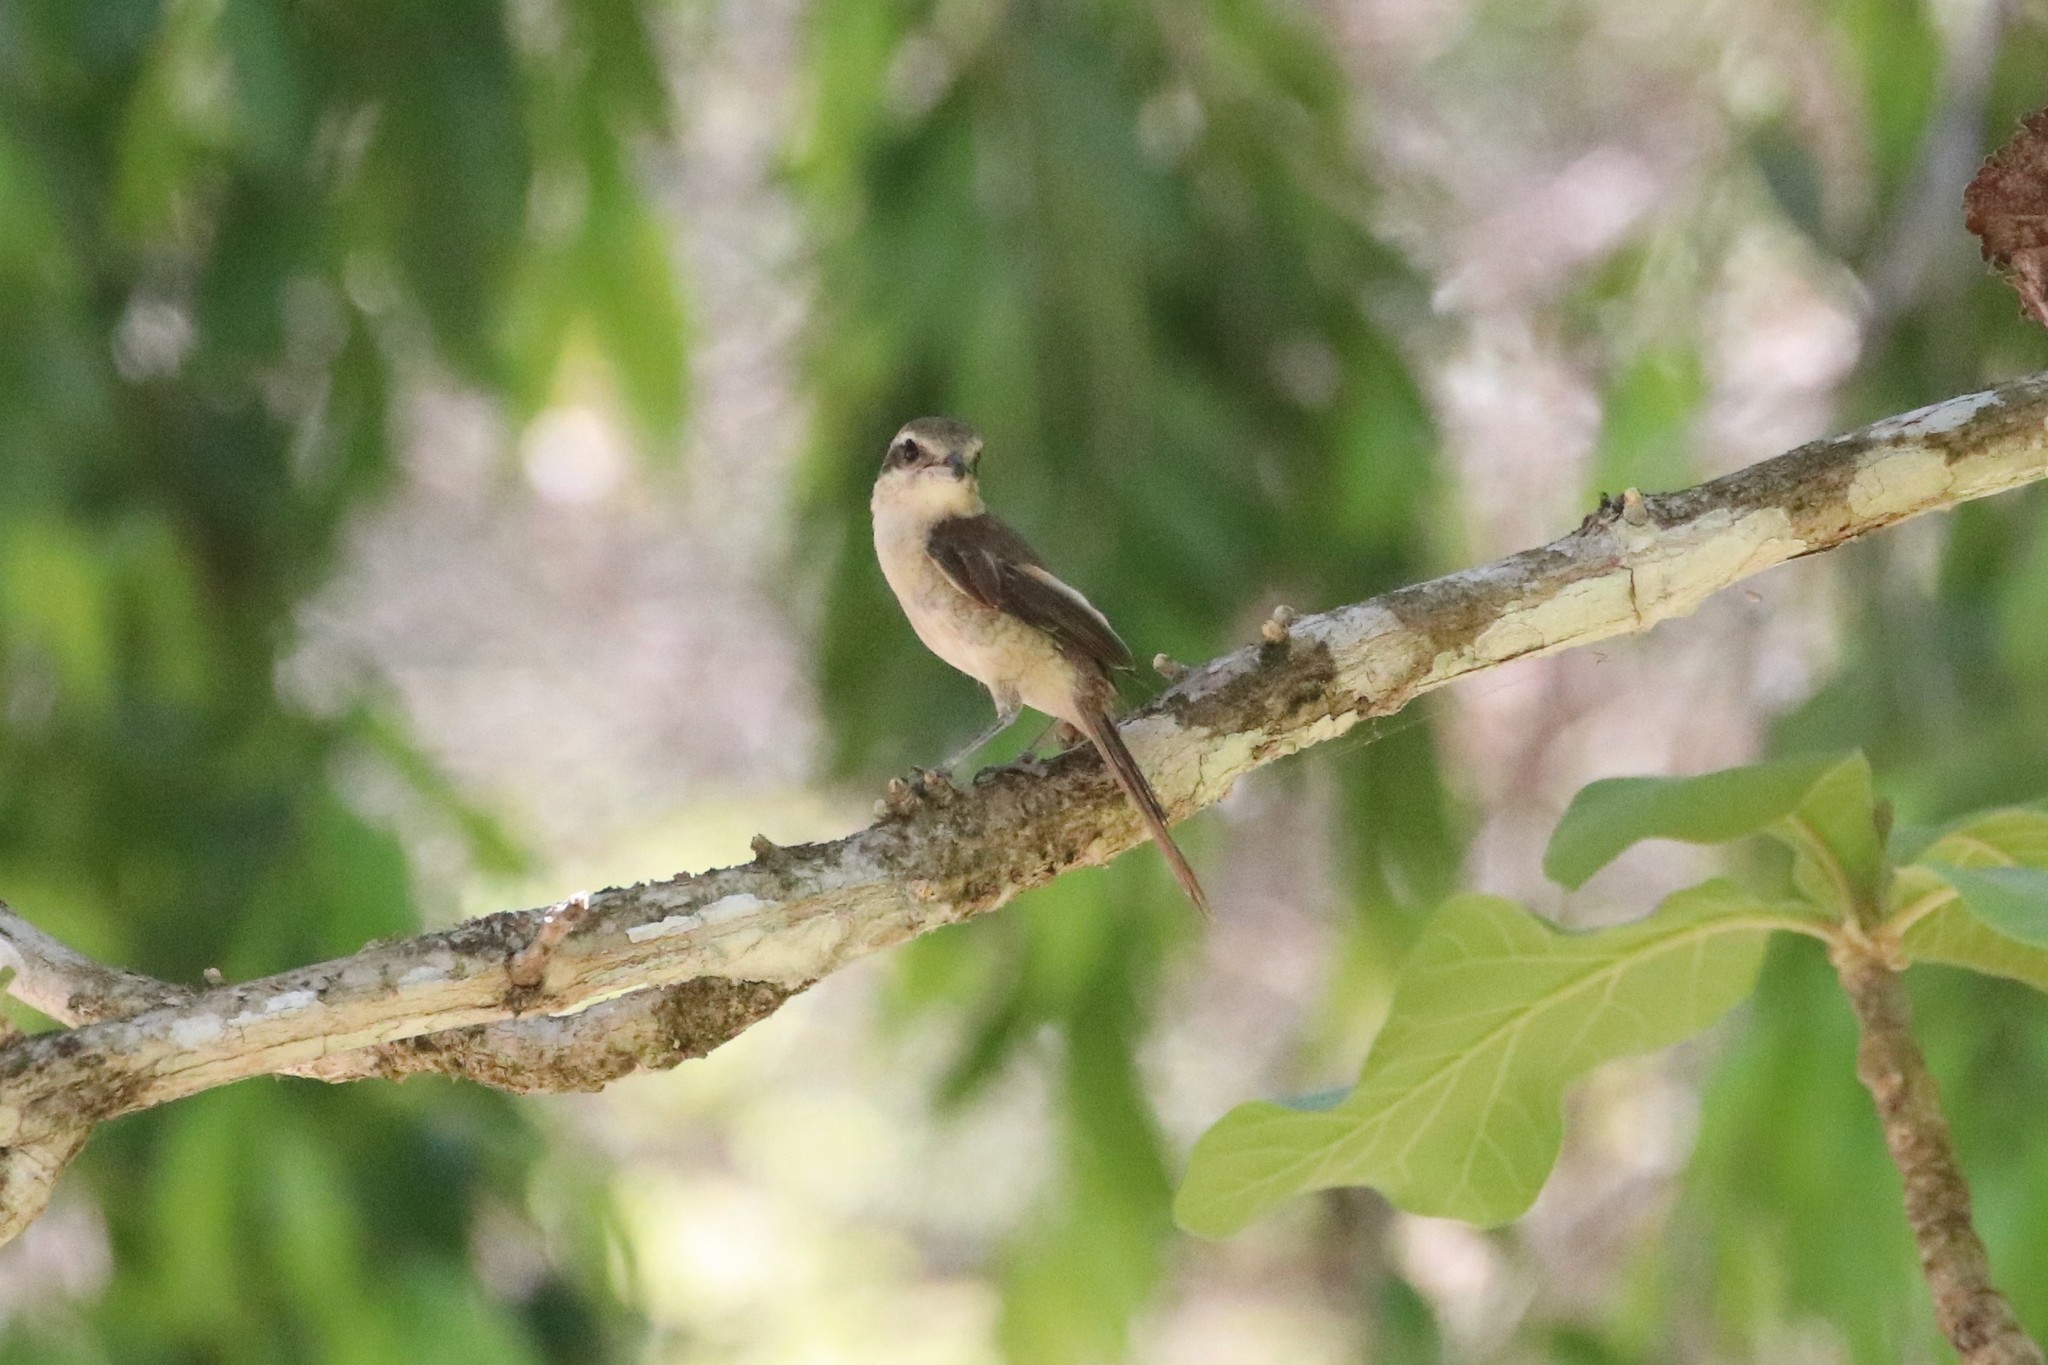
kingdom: Animalia
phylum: Chordata
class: Aves
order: Passeriformes
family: Laniidae
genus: Lanius
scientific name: Lanius cristatus
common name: Brown shrike
